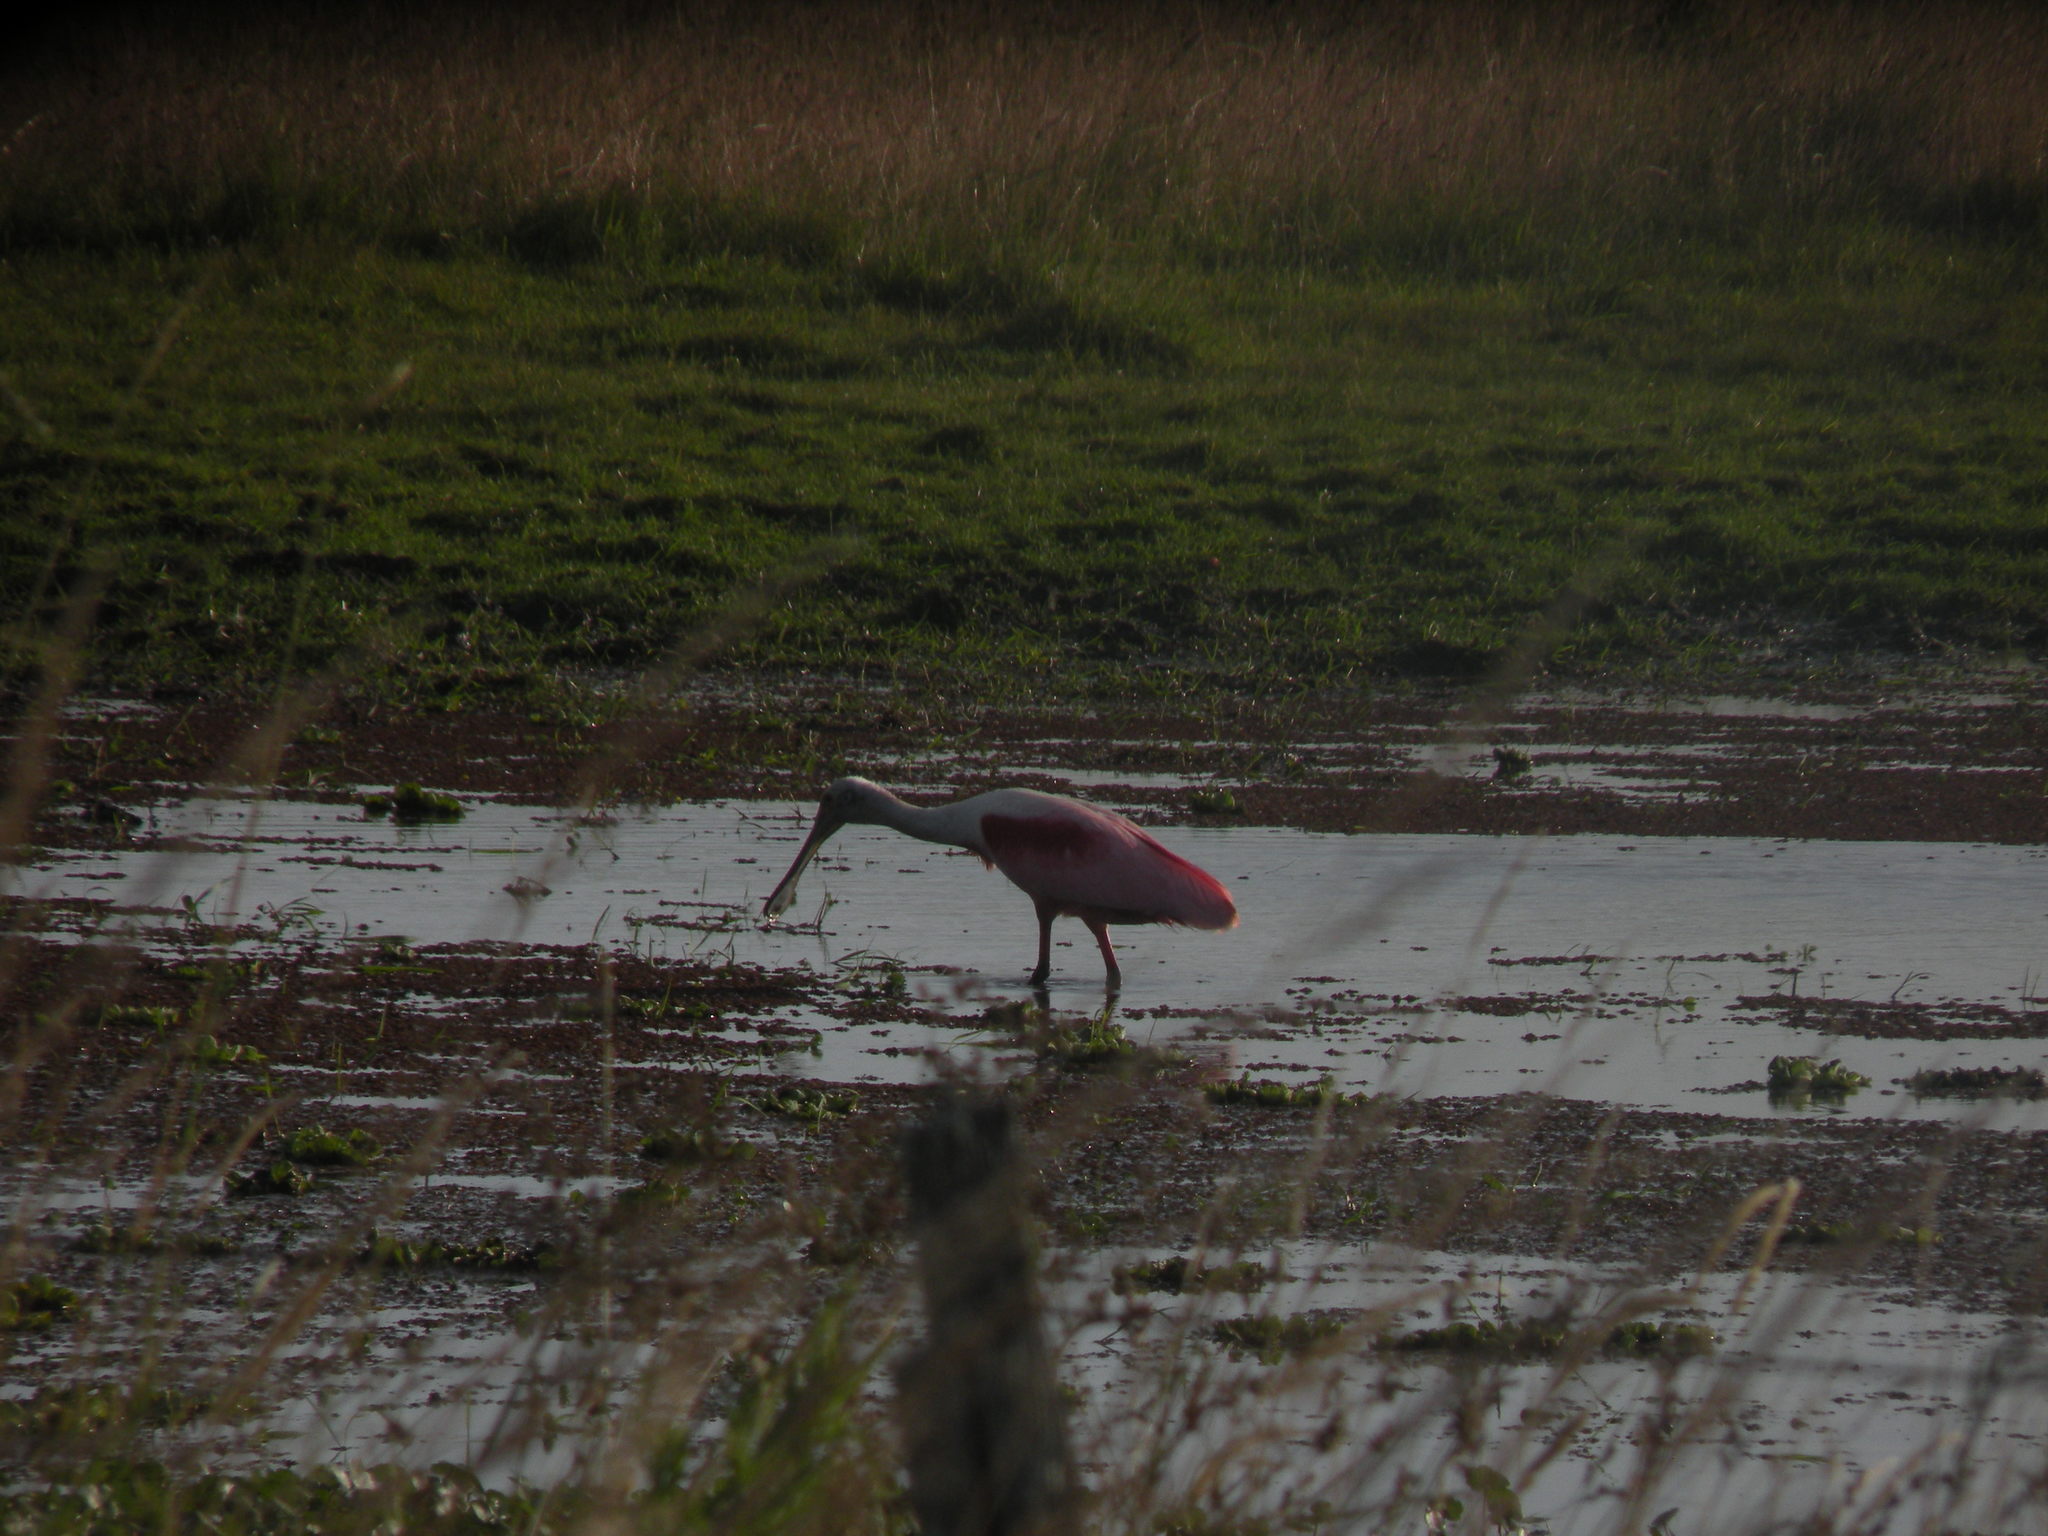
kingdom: Animalia
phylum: Chordata
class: Aves
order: Pelecaniformes
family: Threskiornithidae
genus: Platalea
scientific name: Platalea ajaja
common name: Roseate spoonbill
